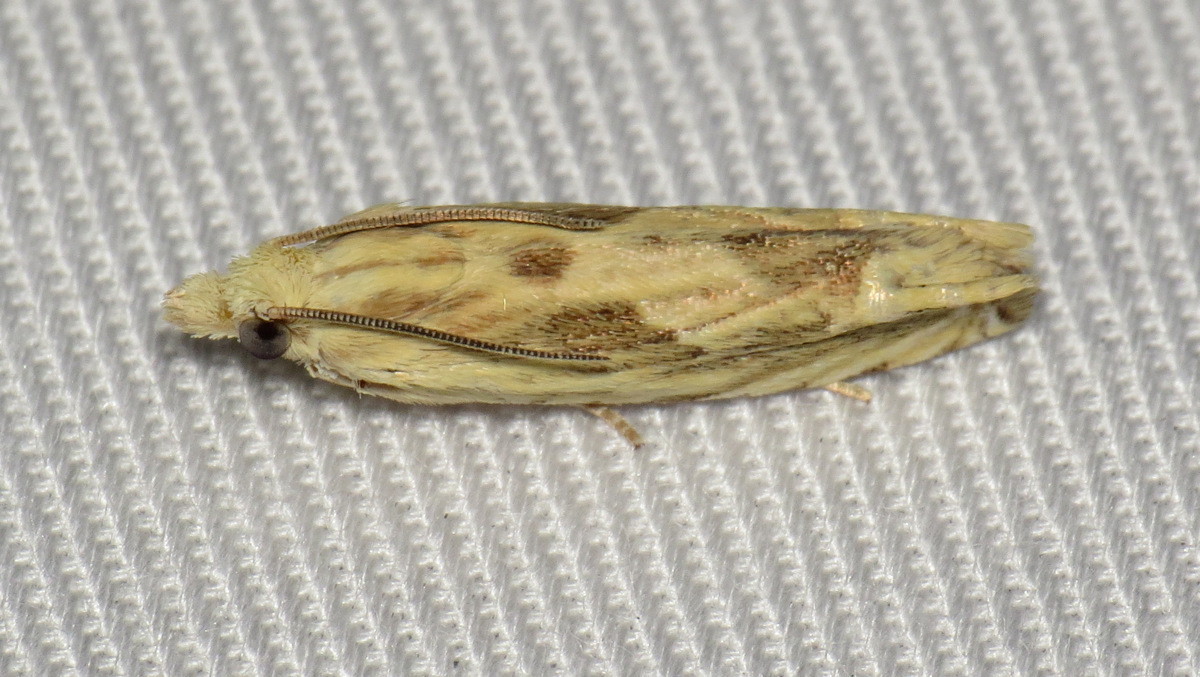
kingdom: Animalia
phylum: Arthropoda
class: Insecta
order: Lepidoptera
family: Tortricidae
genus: Eucosma
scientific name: Eucosma olivaceana
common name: Olivaceous eucosma moth
